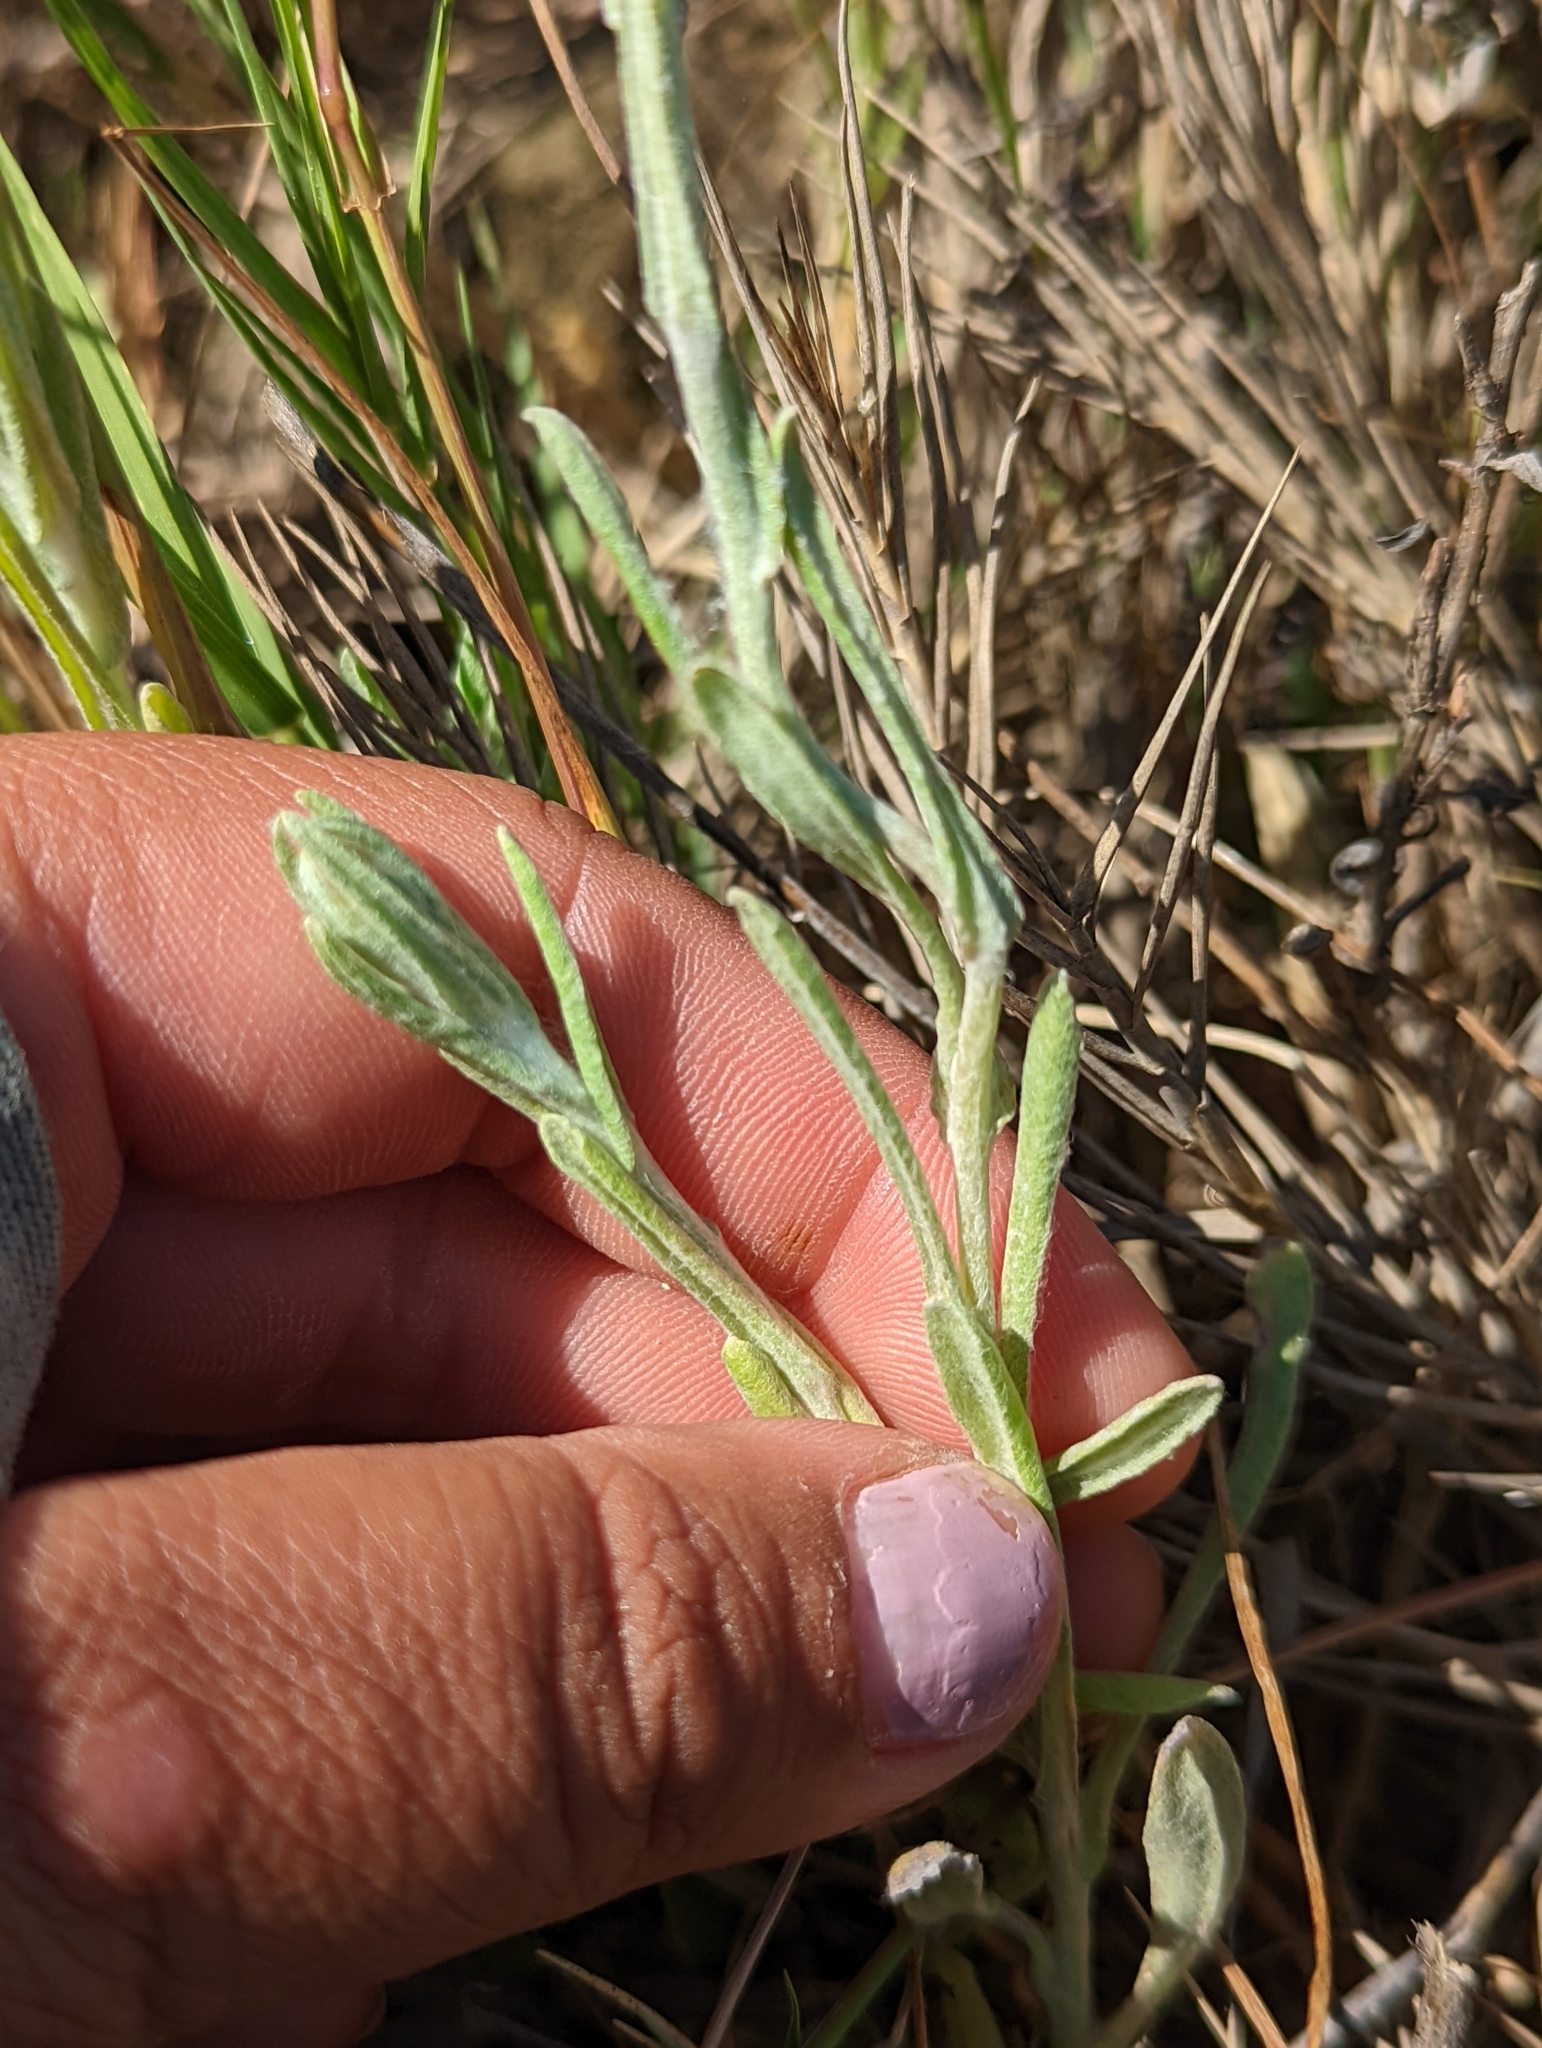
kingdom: Plantae
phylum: Tracheophyta
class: Magnoliopsida
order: Asterales
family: Asteraceae
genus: Helichrysum
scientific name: Helichrysum luteoalbum
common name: Daisy
